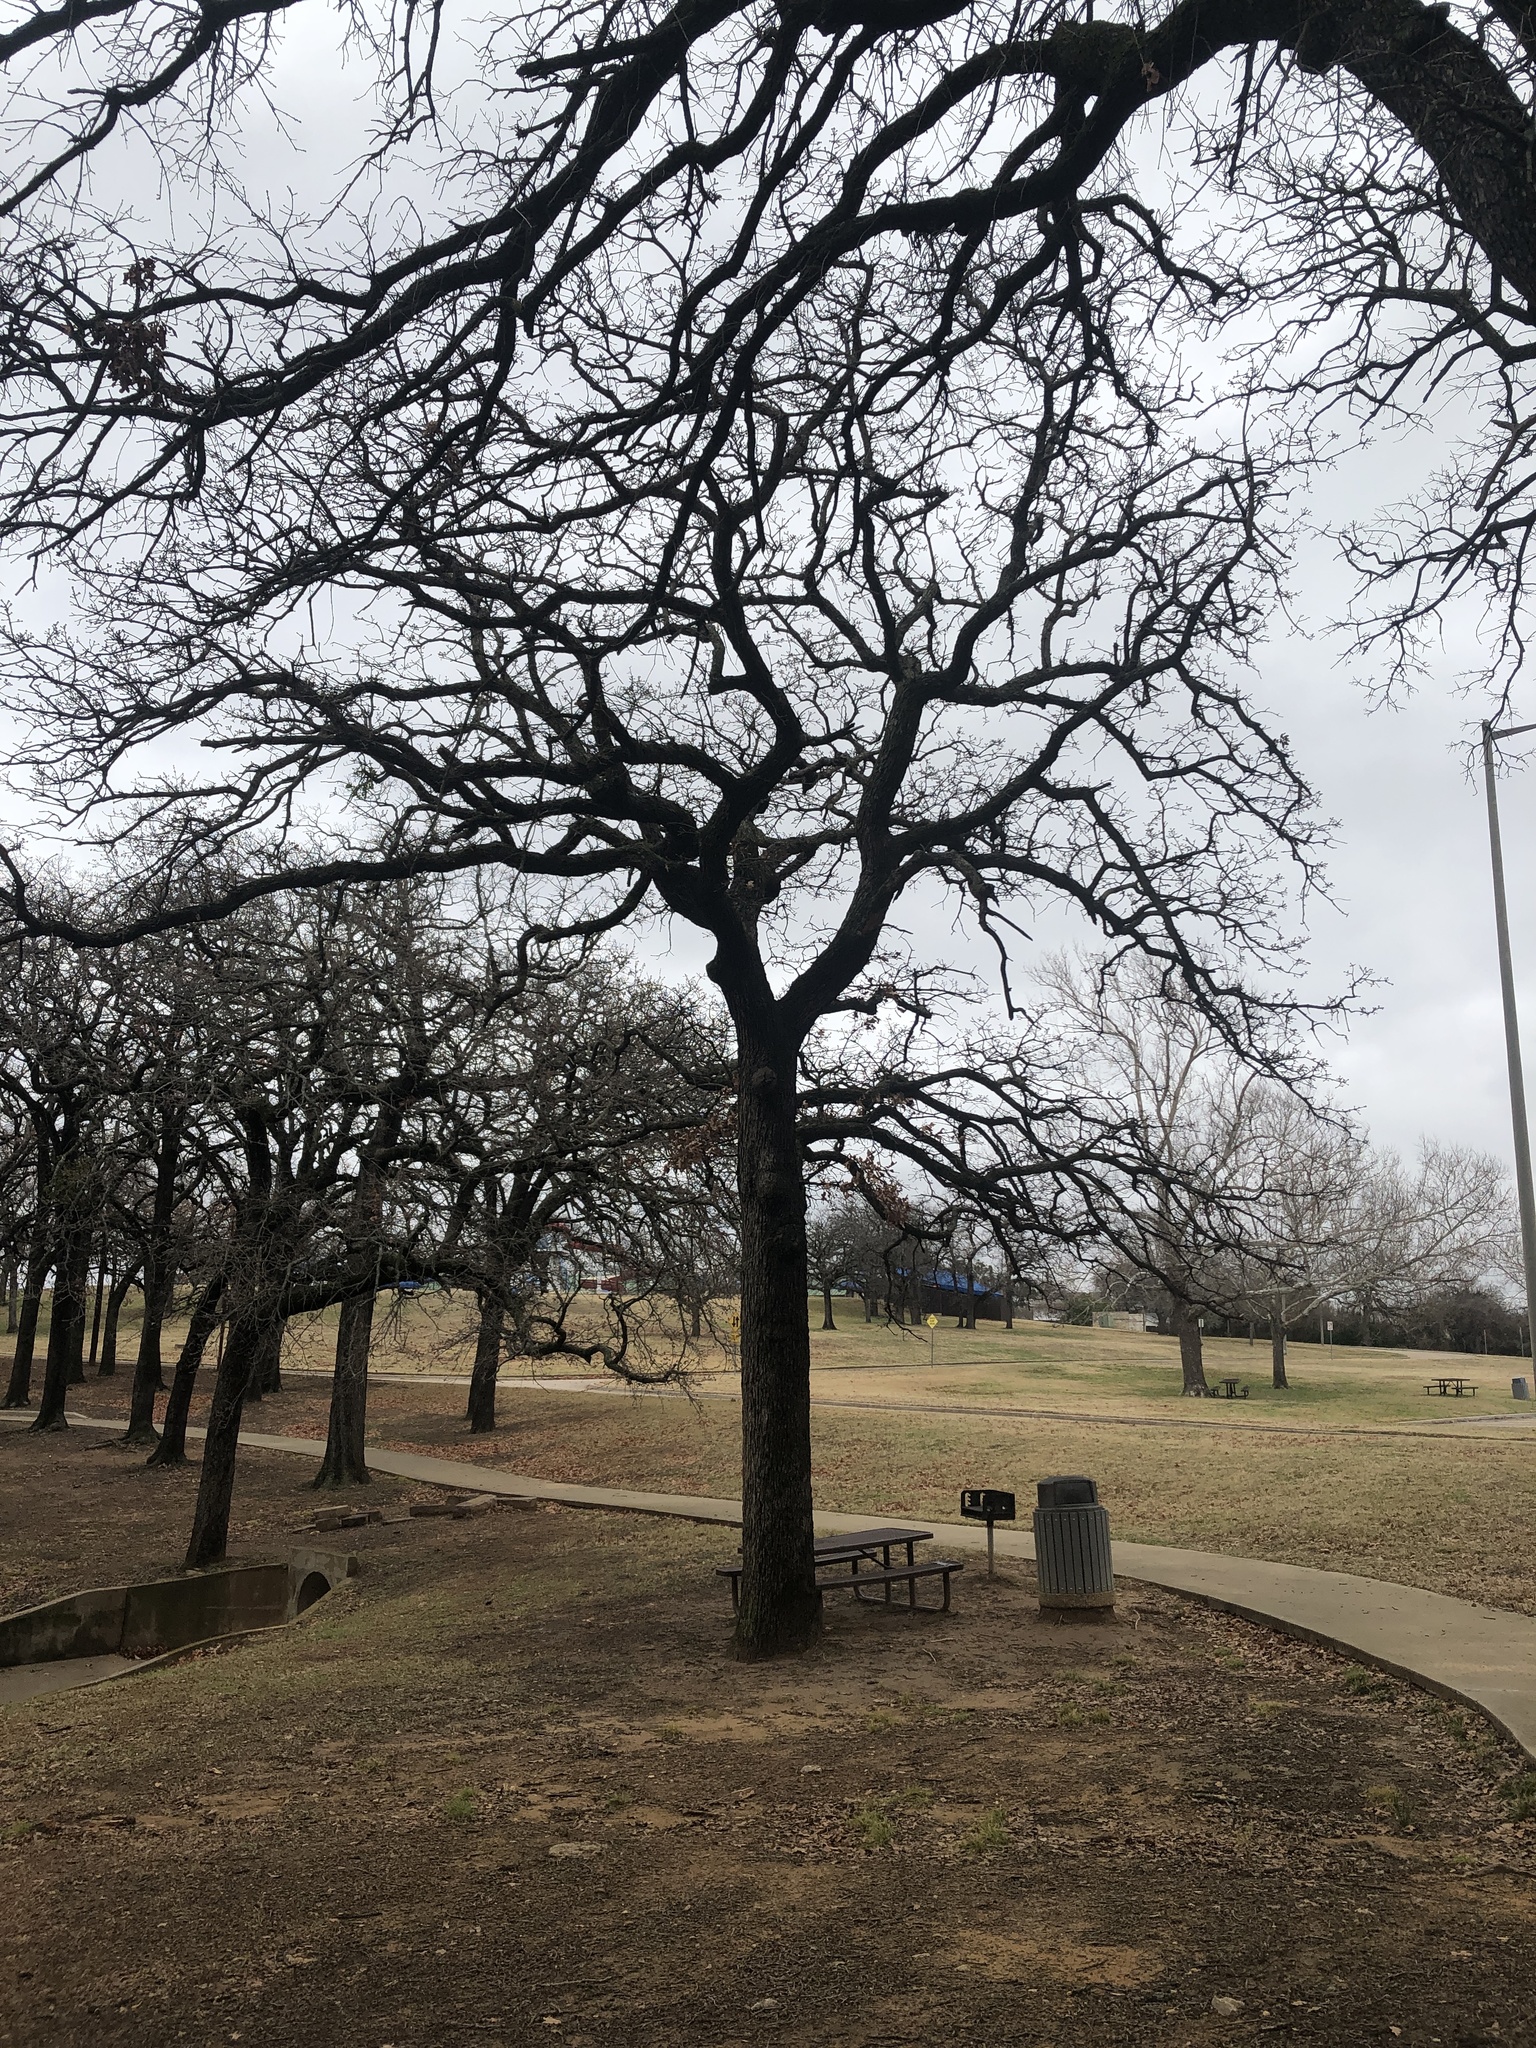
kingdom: Plantae
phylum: Tracheophyta
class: Magnoliopsida
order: Fagales
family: Fagaceae
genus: Quercus
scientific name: Quercus stellata
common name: Post oak
